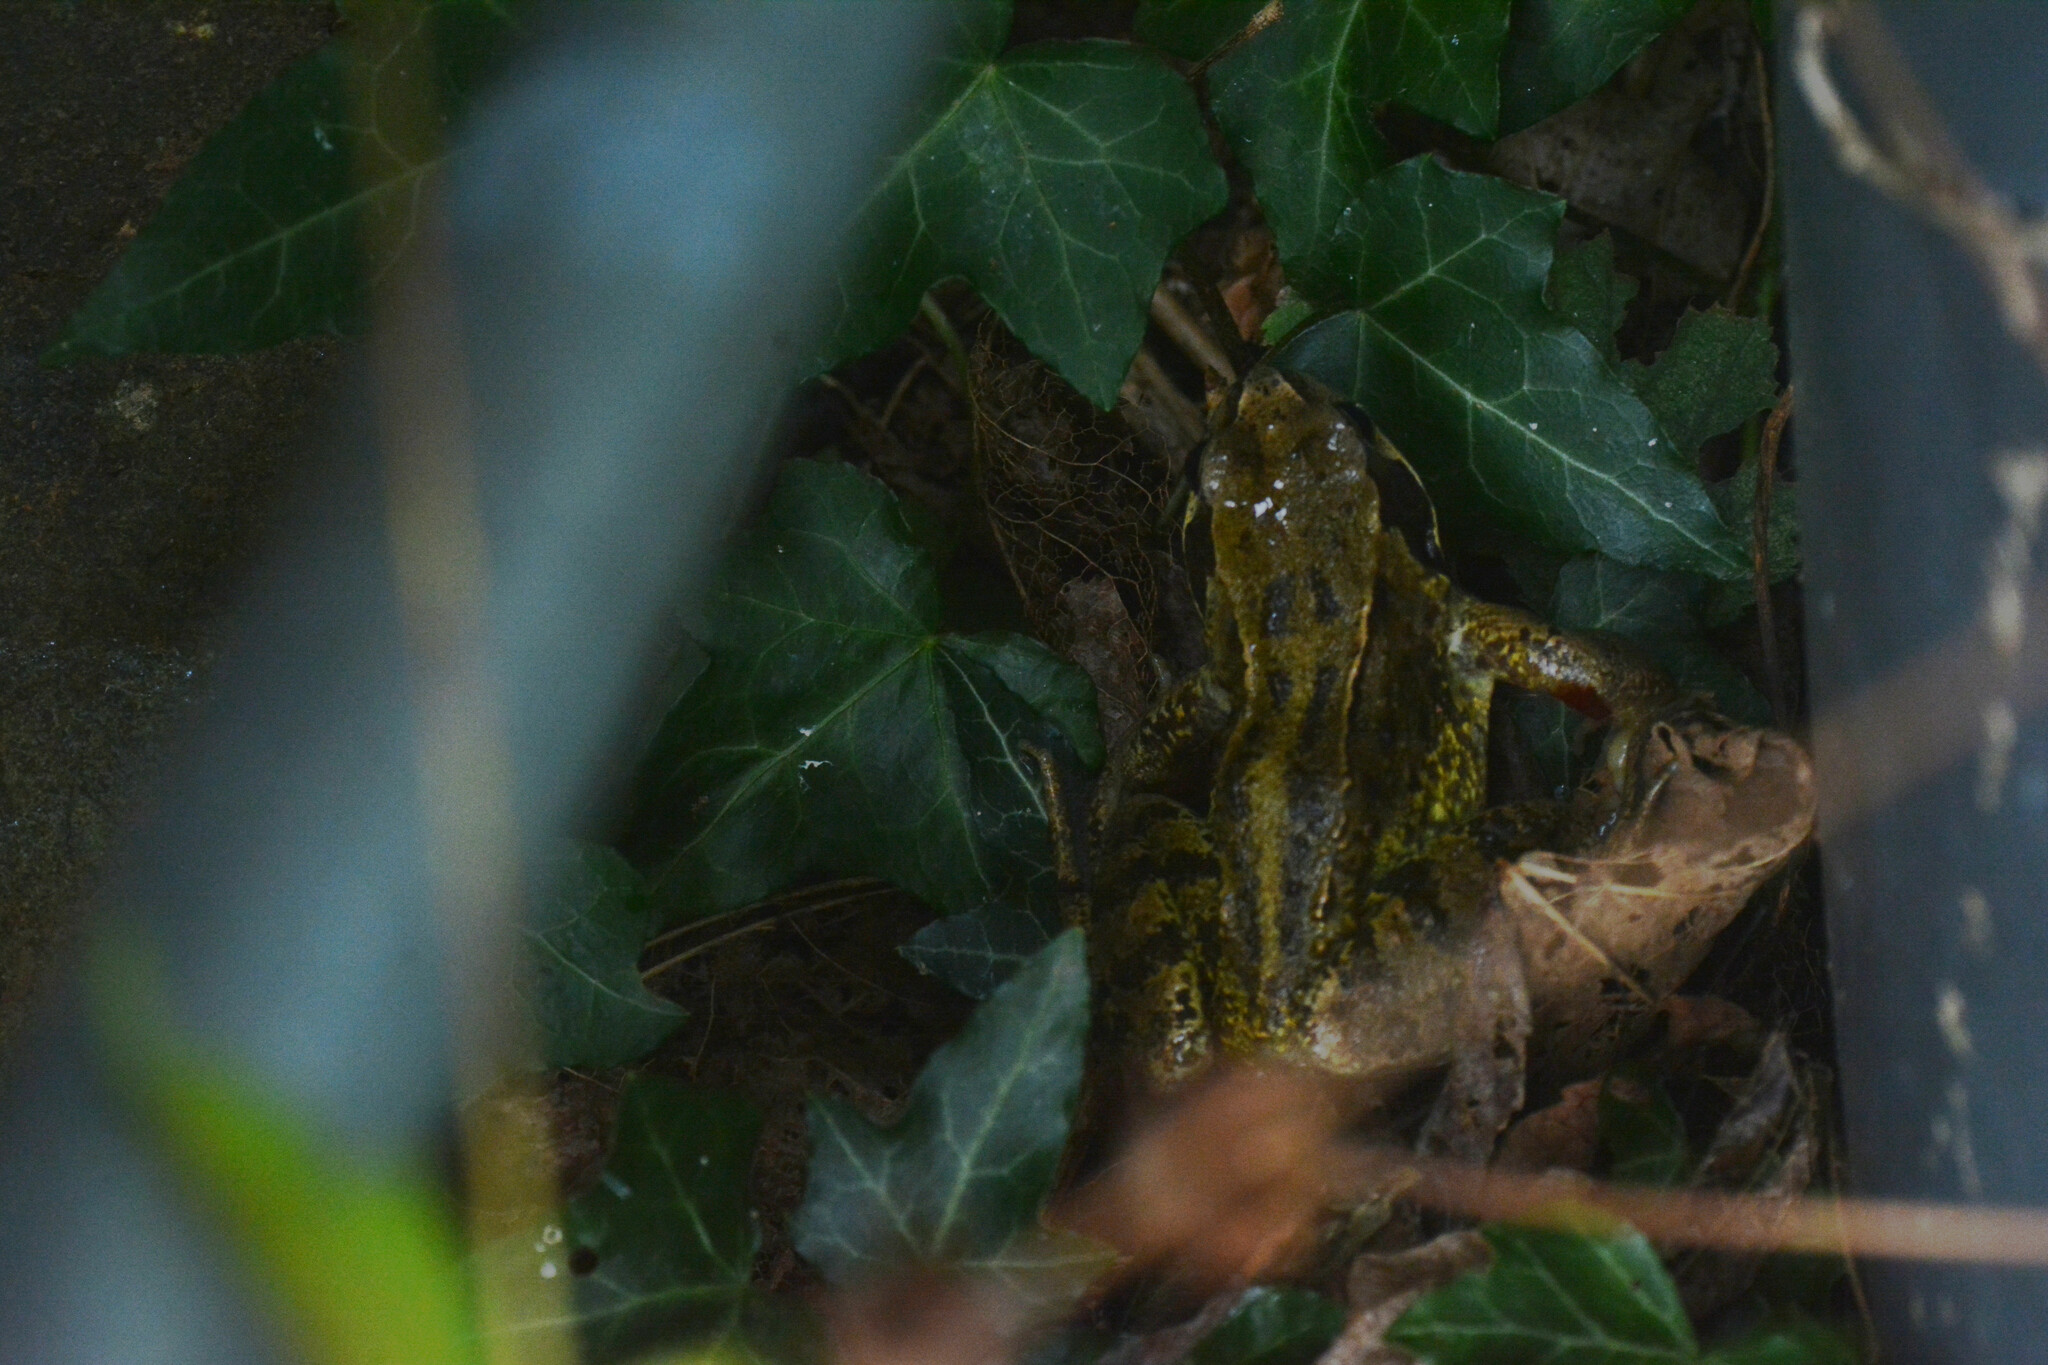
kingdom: Animalia
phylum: Chordata
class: Amphibia
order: Anura
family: Ranidae
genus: Rana
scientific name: Rana temporaria
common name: Common frog
